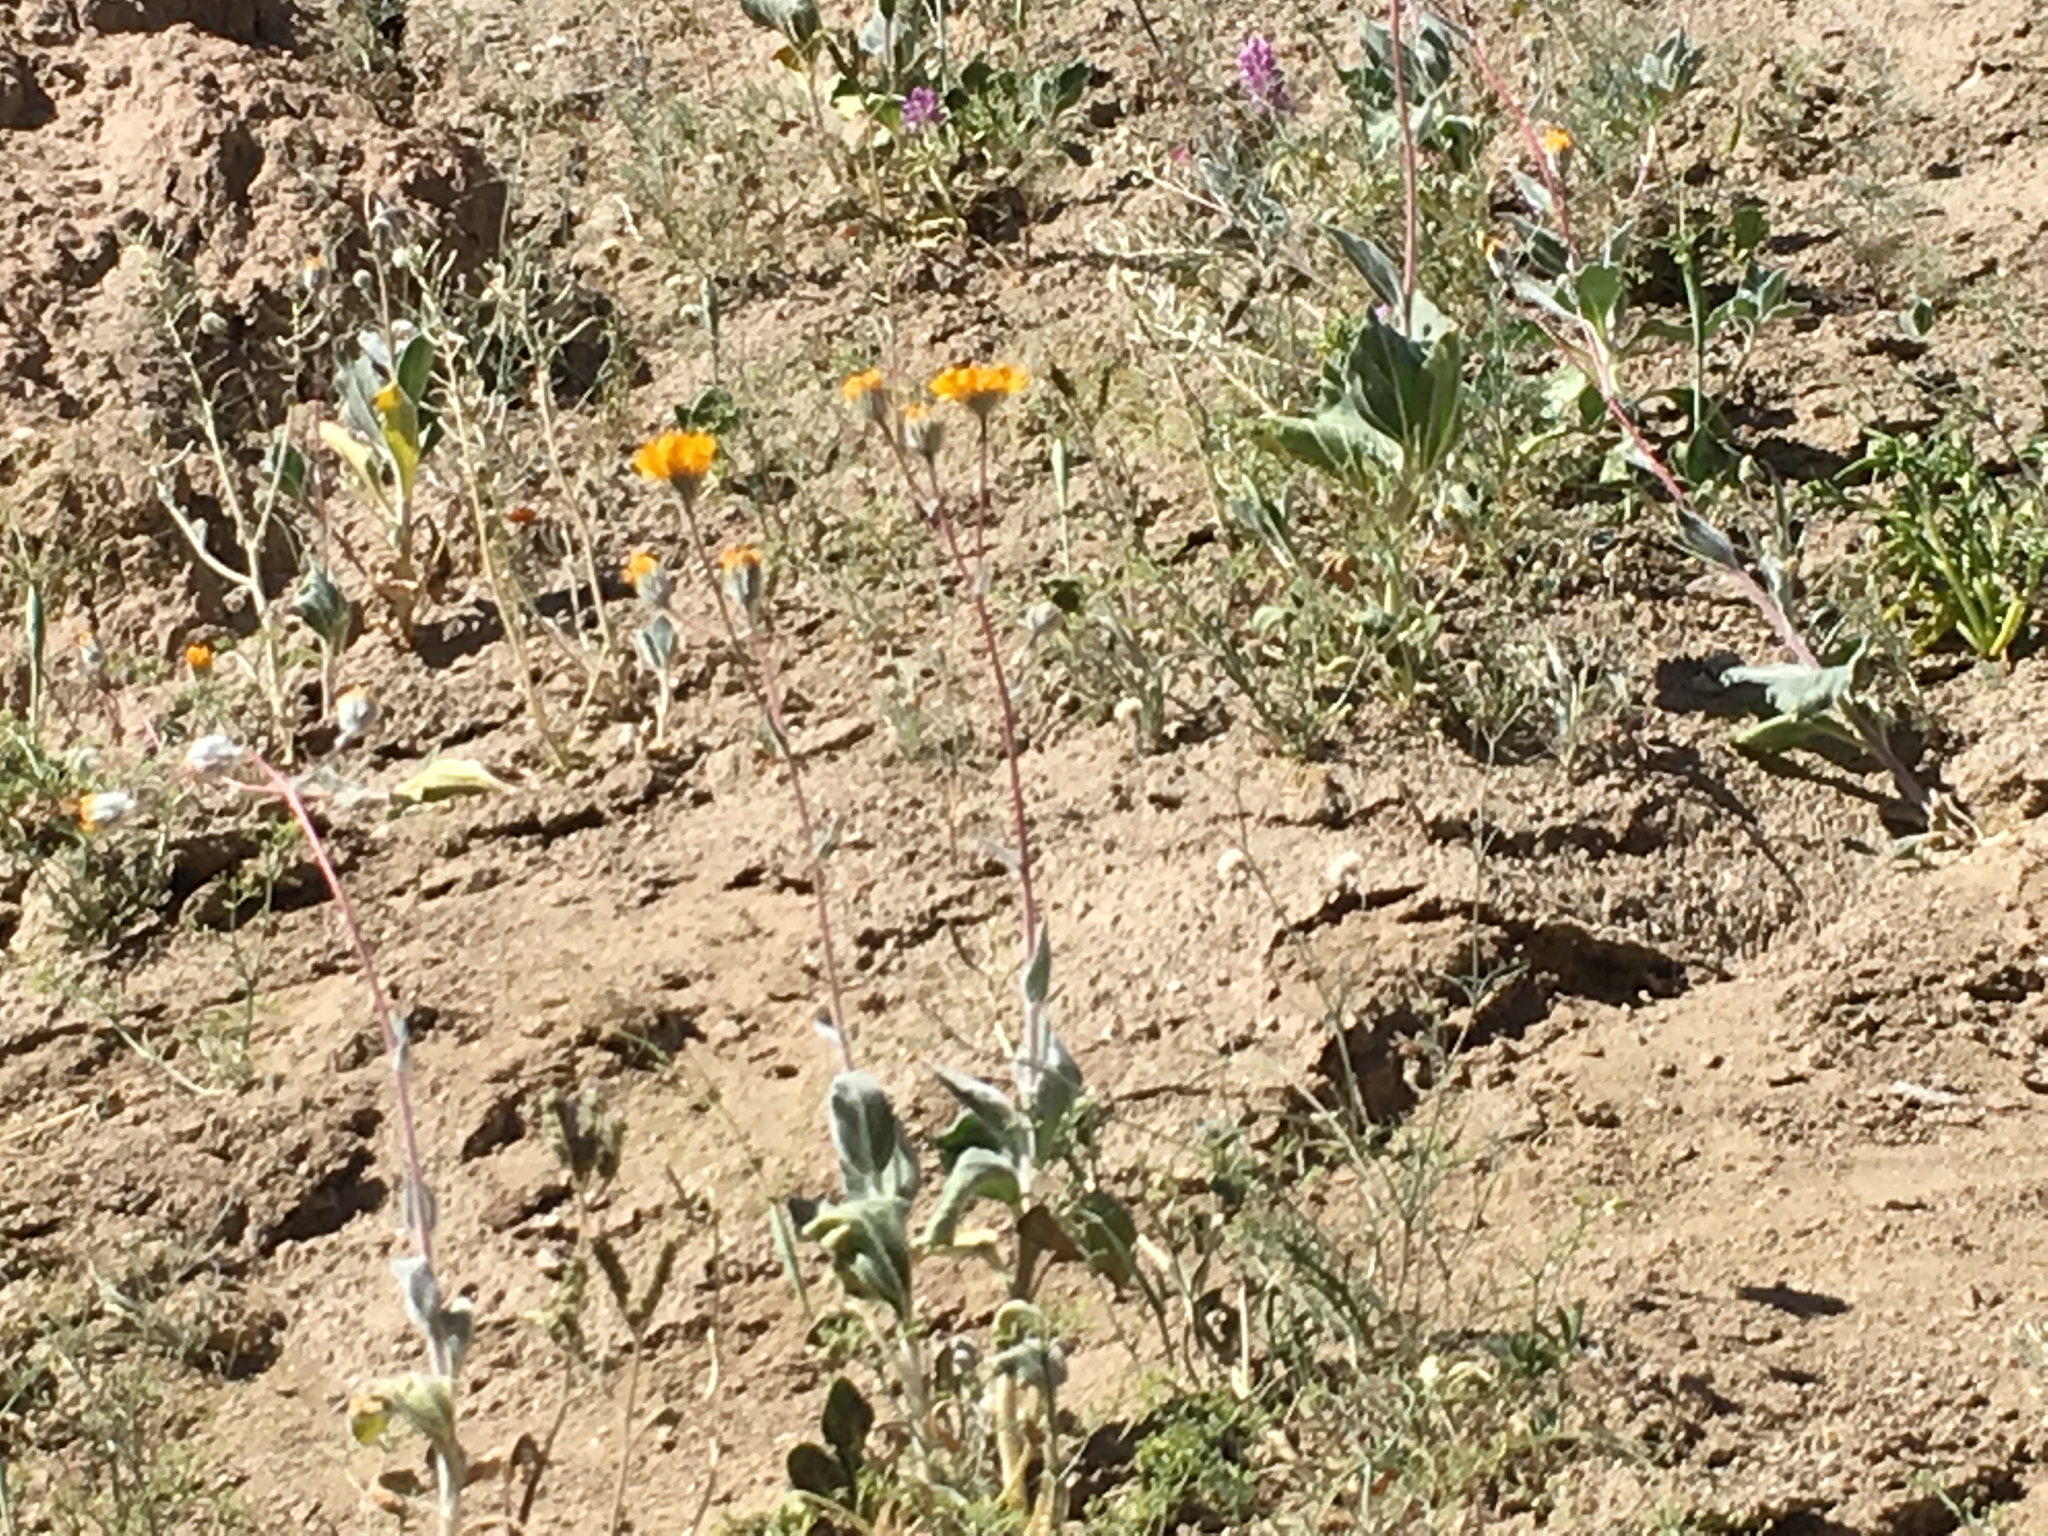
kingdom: Plantae
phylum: Tracheophyta
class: Magnoliopsida
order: Asterales
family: Asteraceae
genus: Geraea
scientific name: Geraea canescens
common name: Desert-gold
